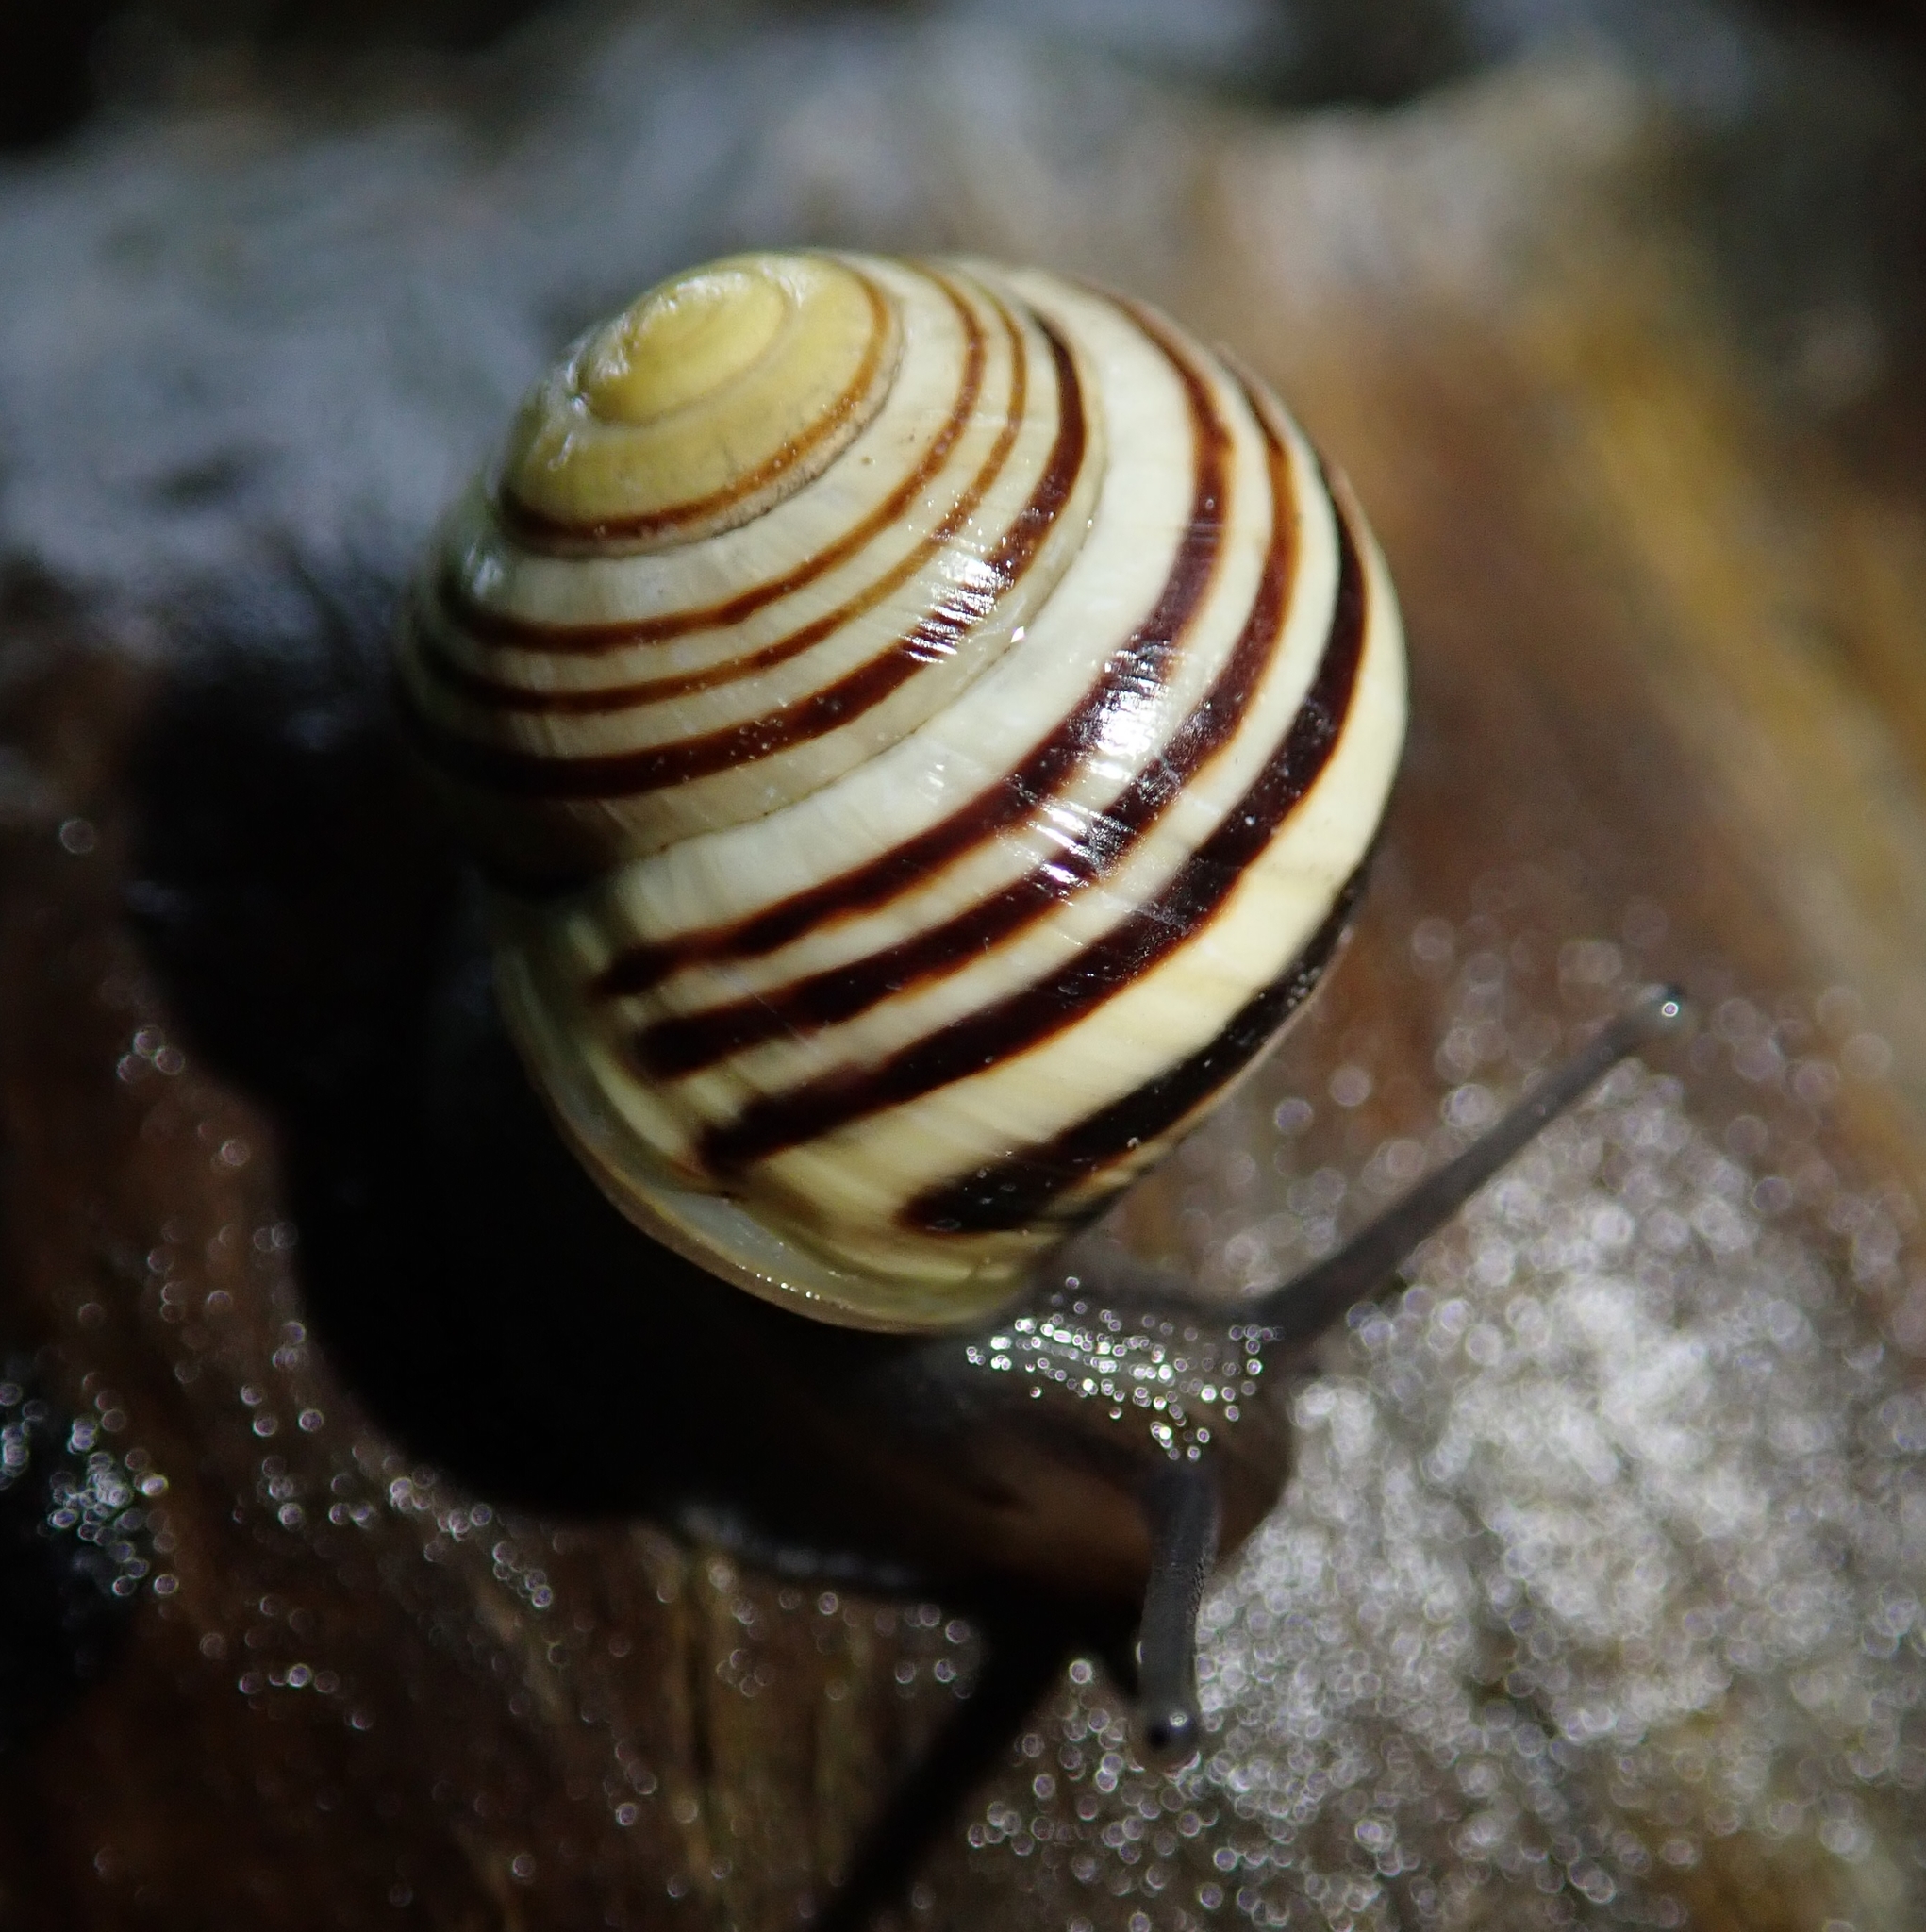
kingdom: Animalia
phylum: Mollusca
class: Gastropoda
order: Stylommatophora
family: Helicidae
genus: Cepaea
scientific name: Cepaea hortensis
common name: White-lip gardensnail
